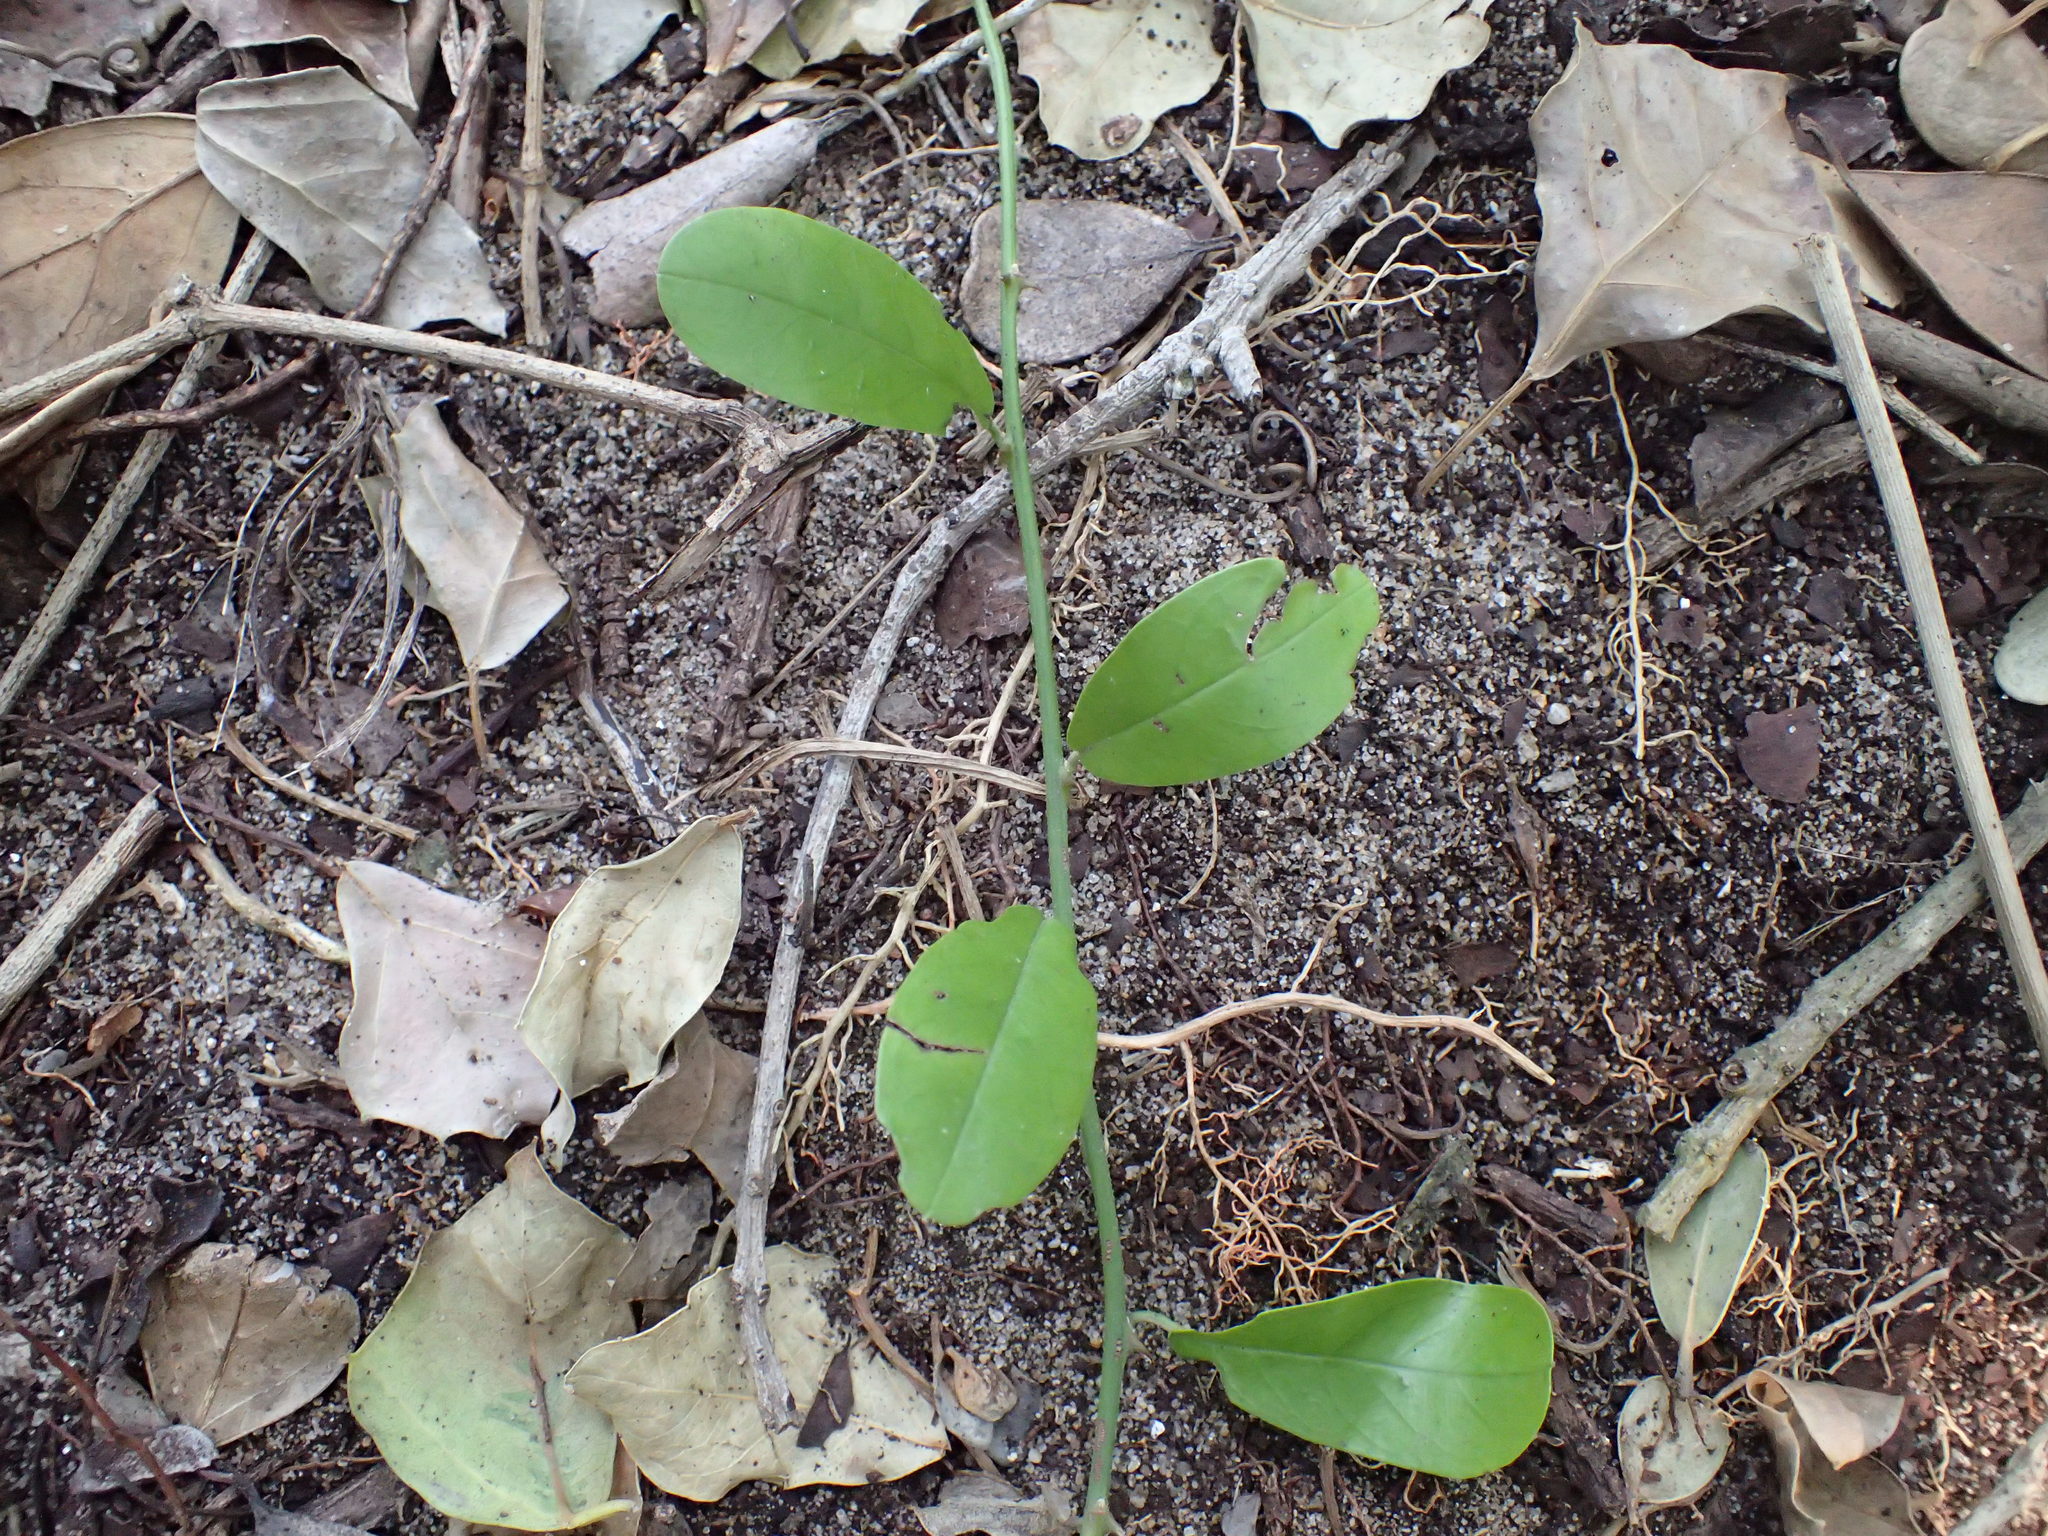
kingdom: Plantae
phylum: Tracheophyta
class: Magnoliopsida
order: Brassicales
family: Capparaceae
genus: Capparis
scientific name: Capparis tomentosa
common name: African caper
